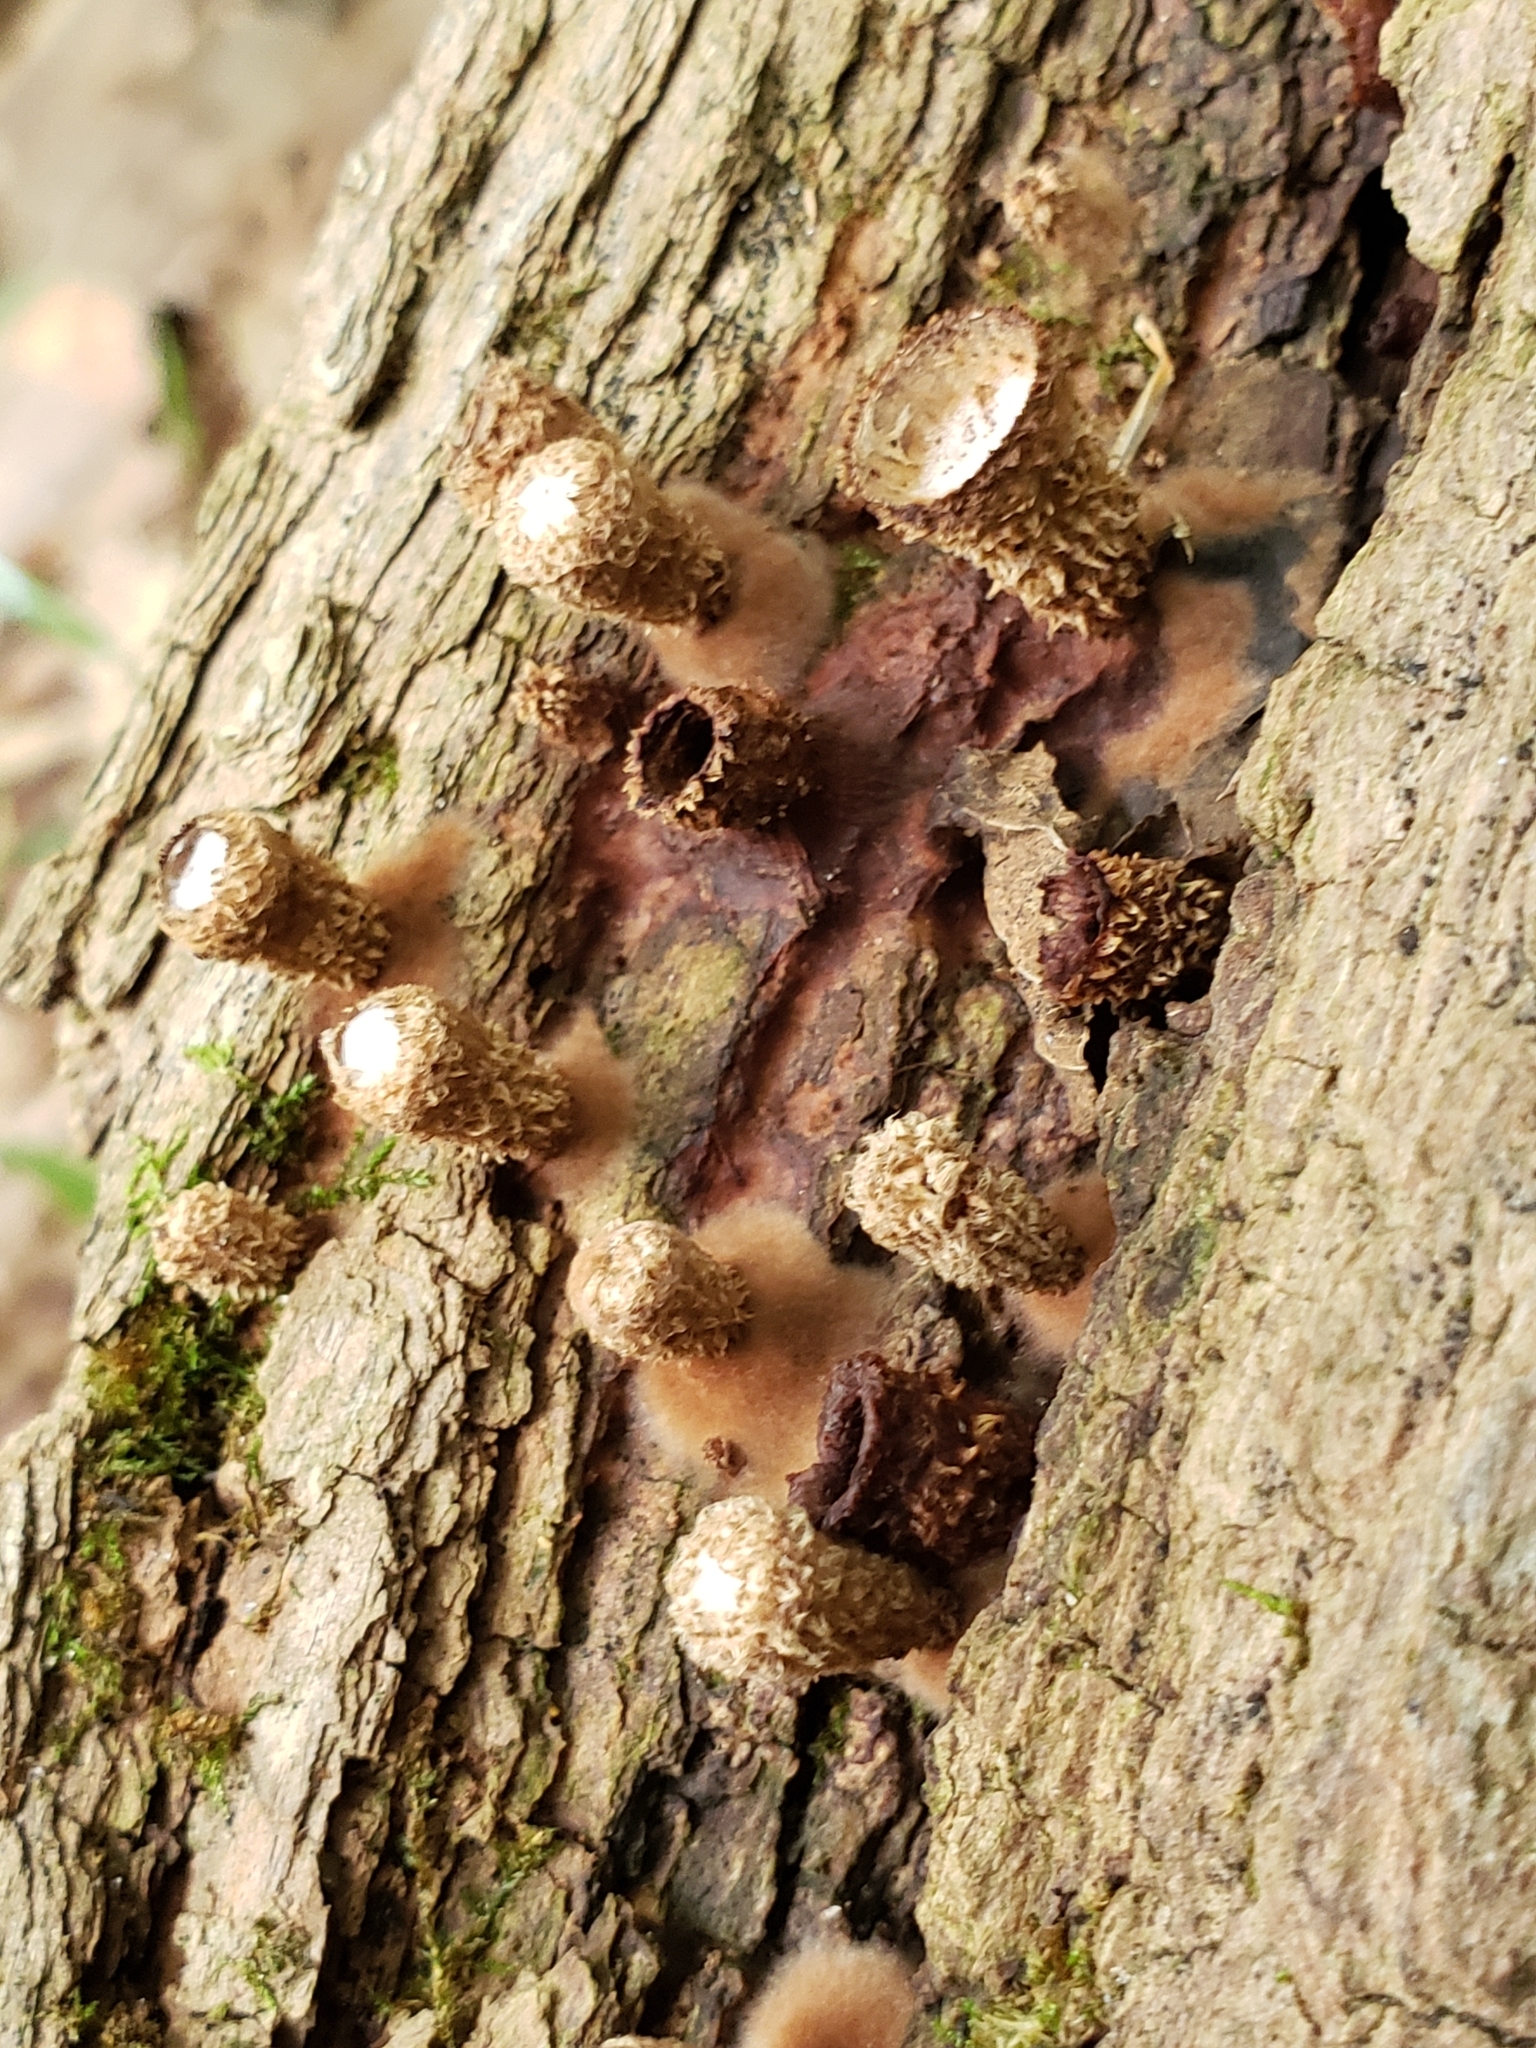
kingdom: Fungi
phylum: Basidiomycota
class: Agaricomycetes
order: Agaricales
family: Agaricaceae
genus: Cyathus
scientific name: Cyathus striatus
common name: Fluted bird's nest
